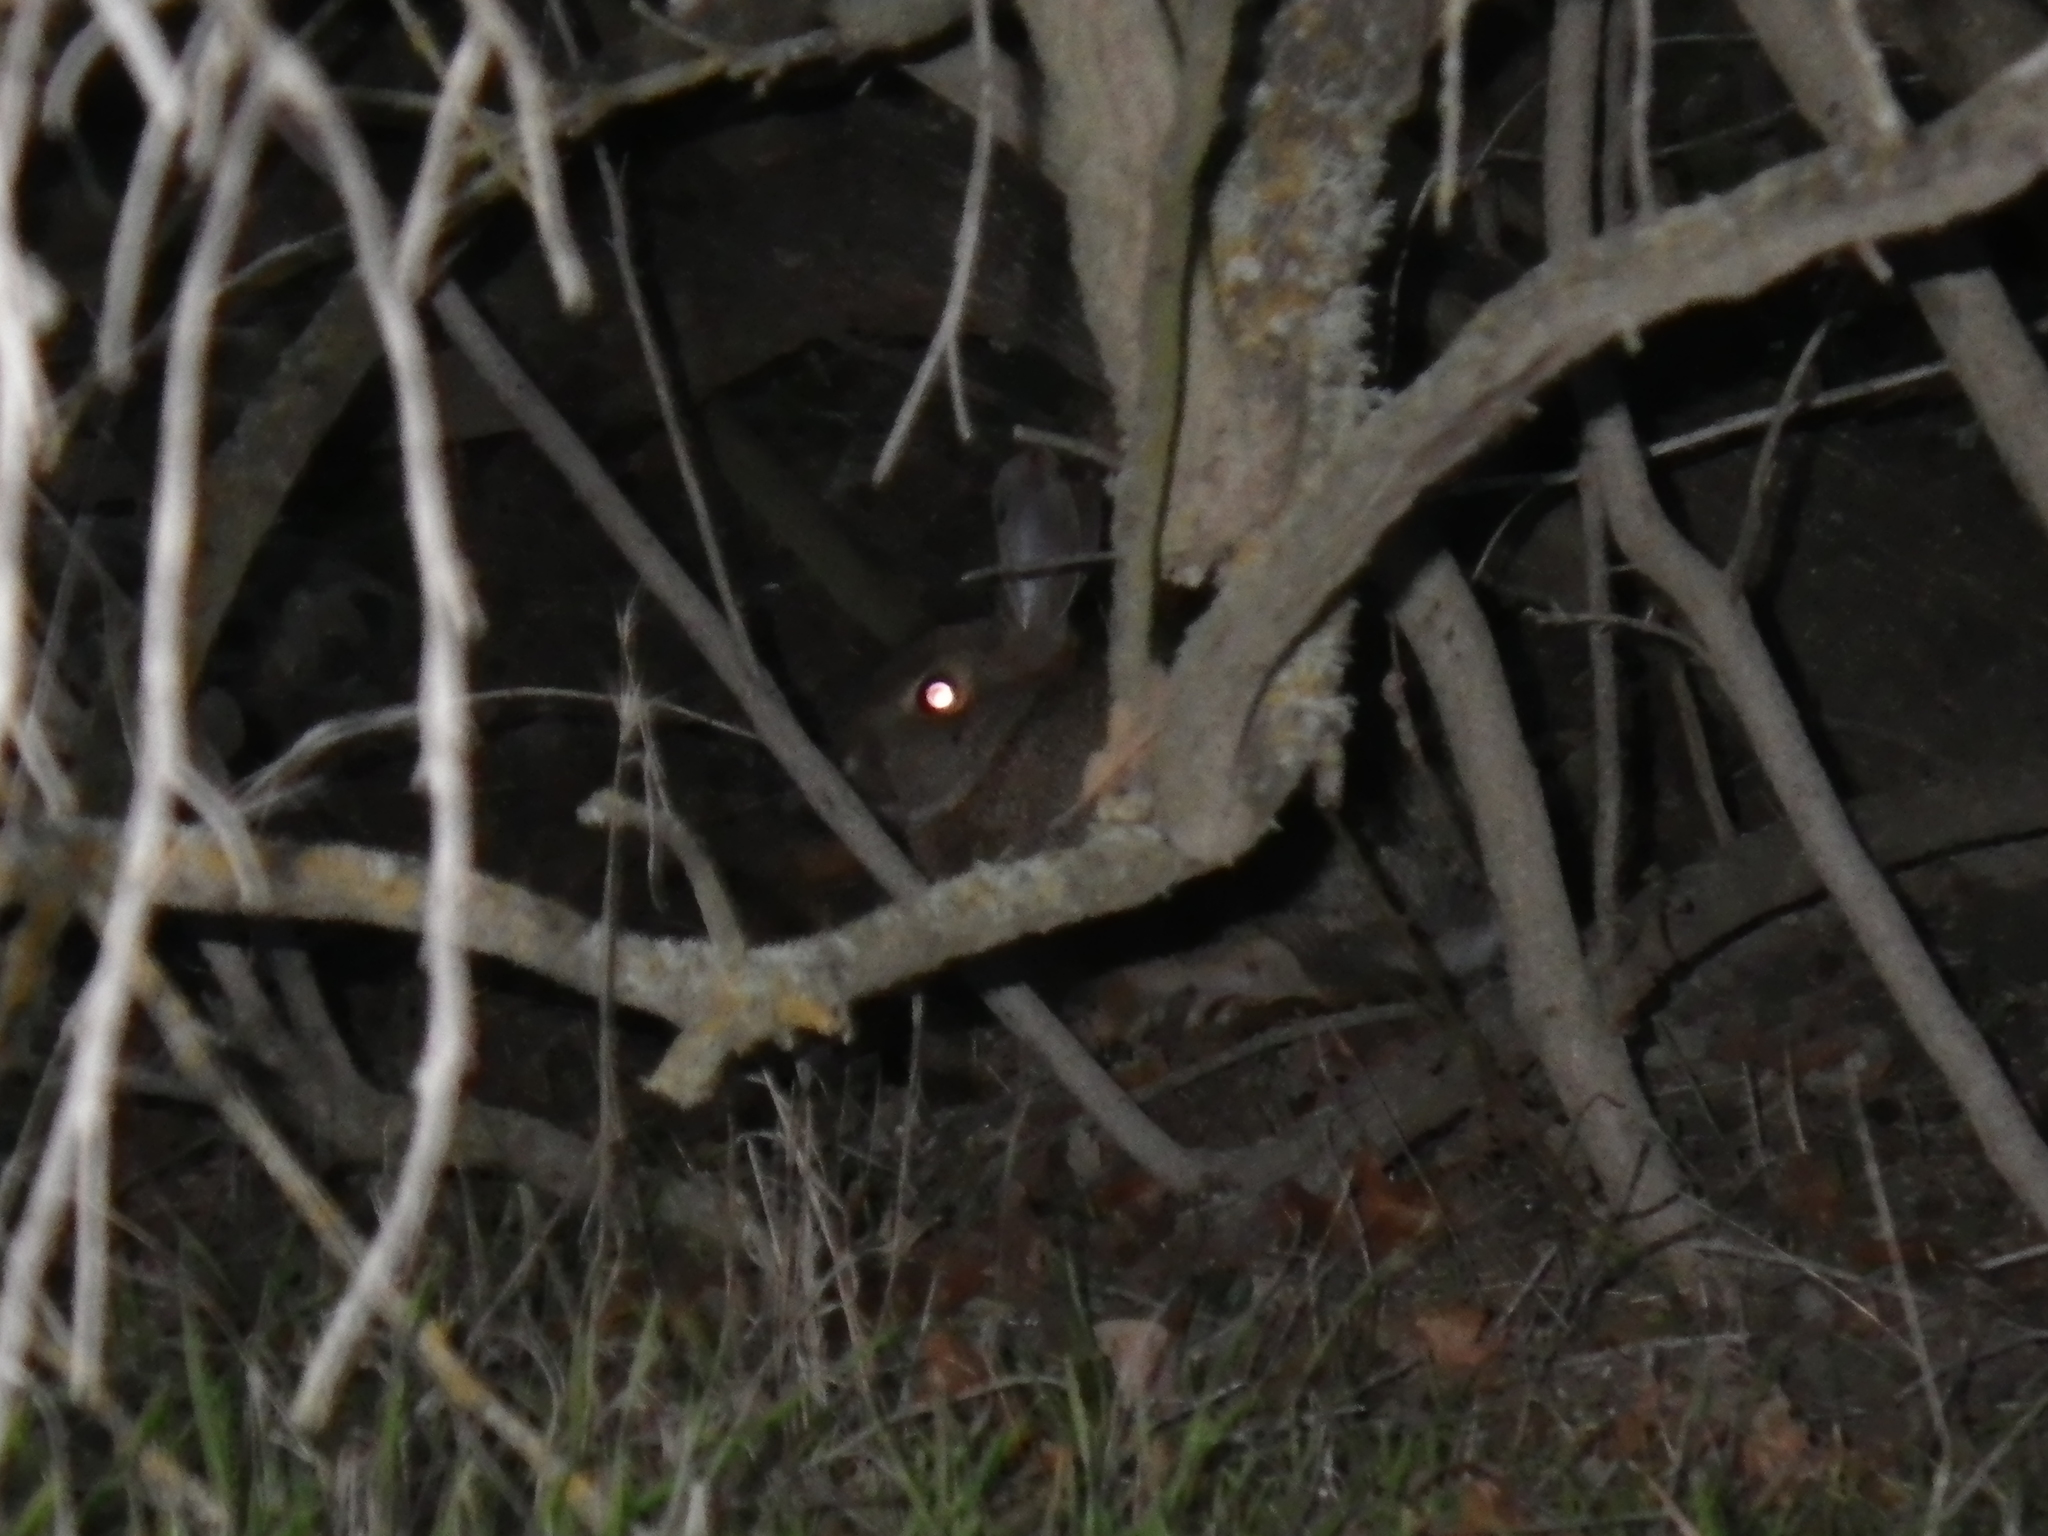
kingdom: Animalia
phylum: Chordata
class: Mammalia
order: Lagomorpha
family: Leporidae
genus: Sylvilagus
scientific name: Sylvilagus bachmani
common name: Brush rabbit
